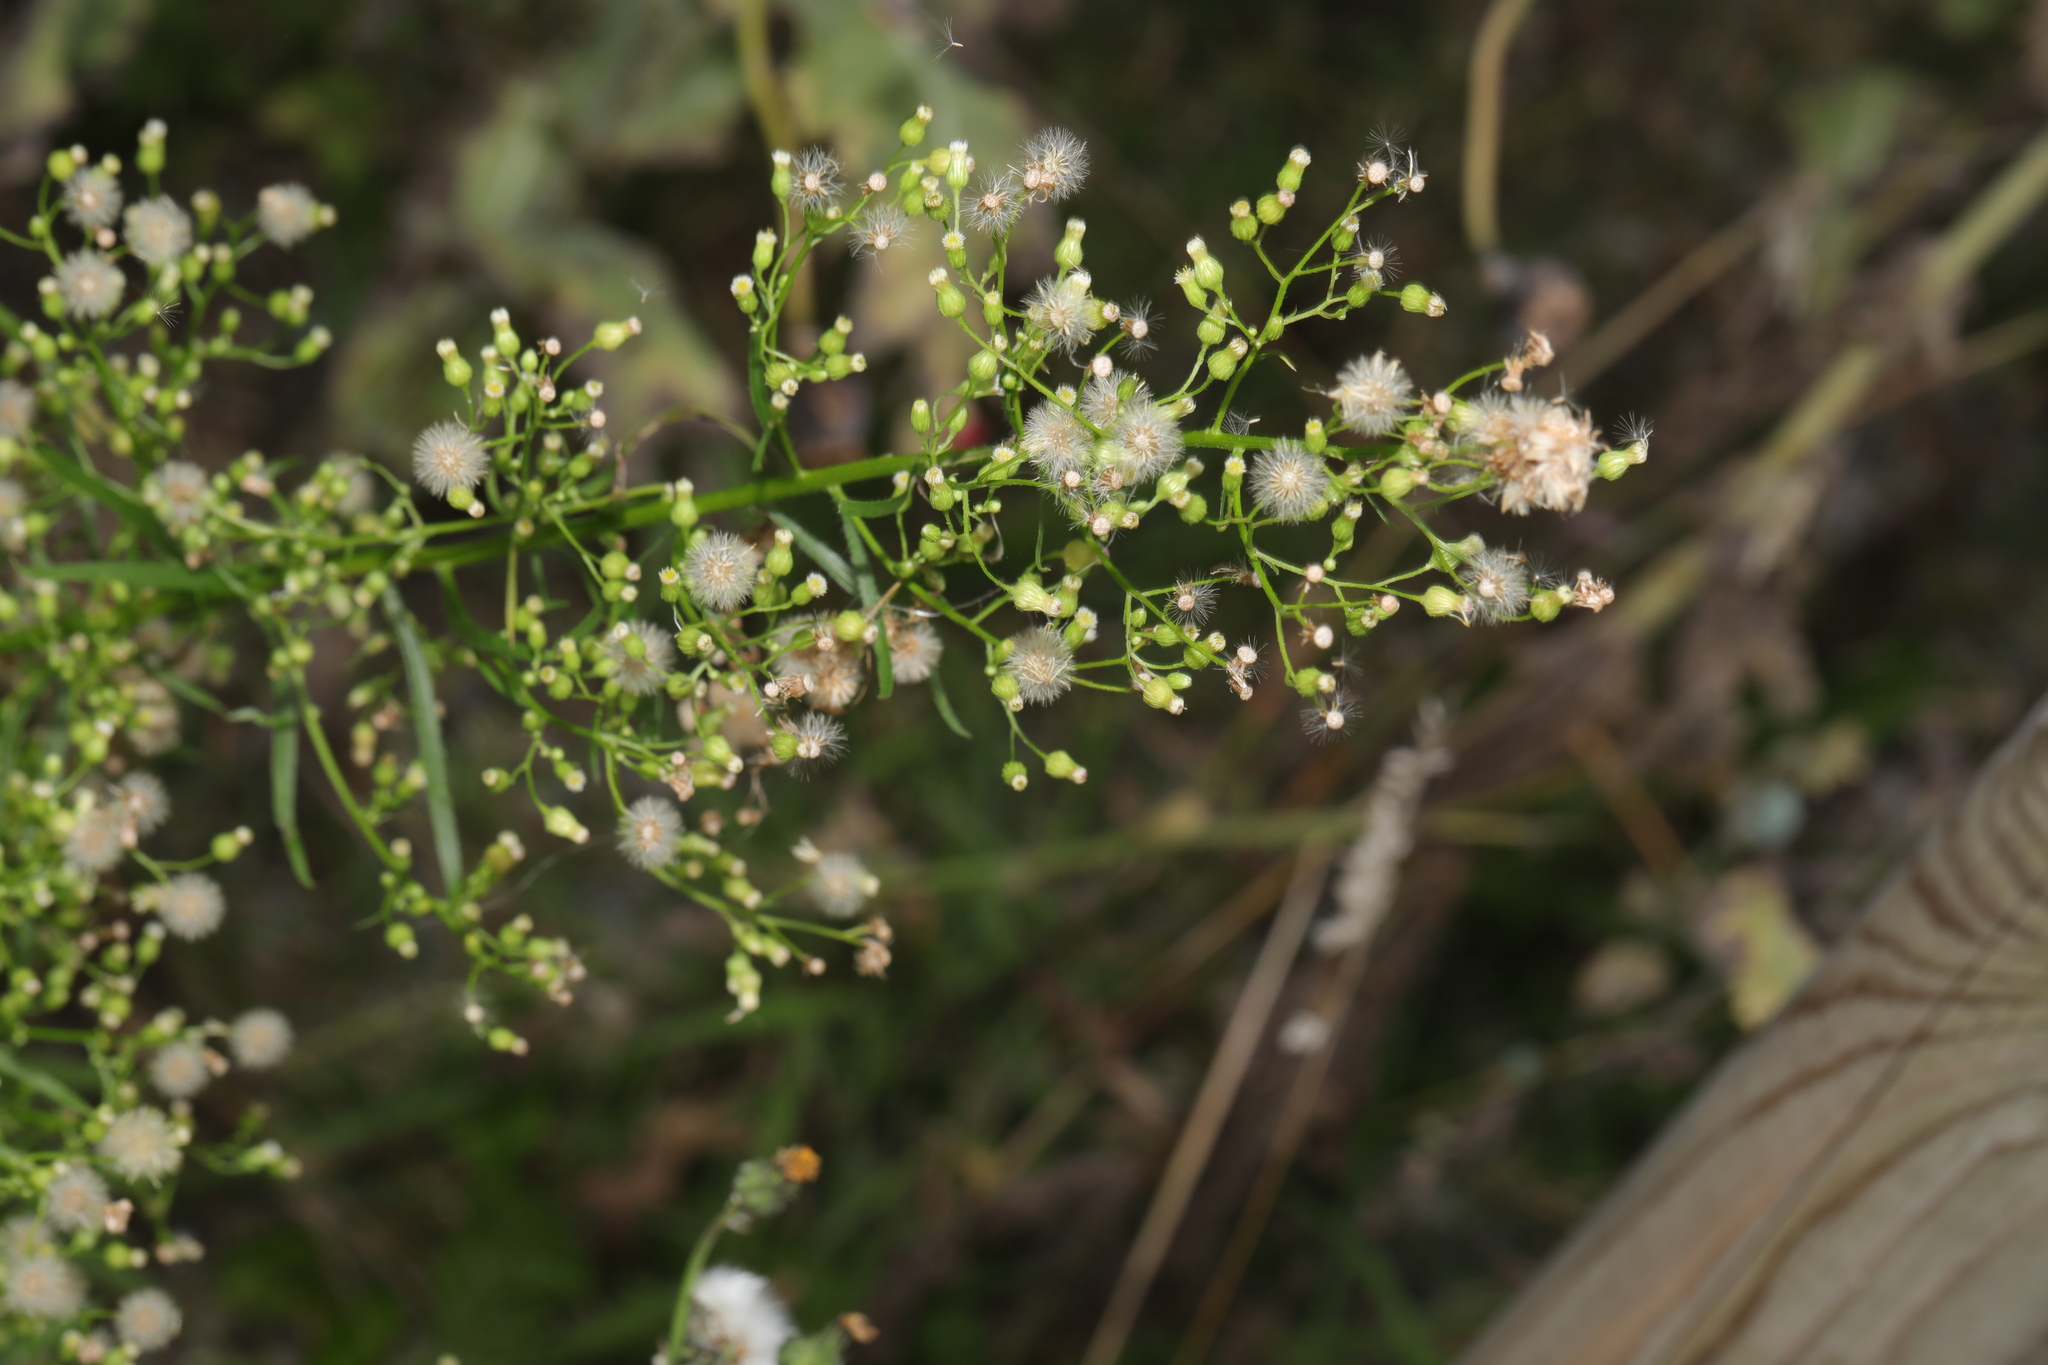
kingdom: Plantae
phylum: Tracheophyta
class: Magnoliopsida
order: Asterales
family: Asteraceae
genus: Erigeron
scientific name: Erigeron canadensis
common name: Canadian fleabane
